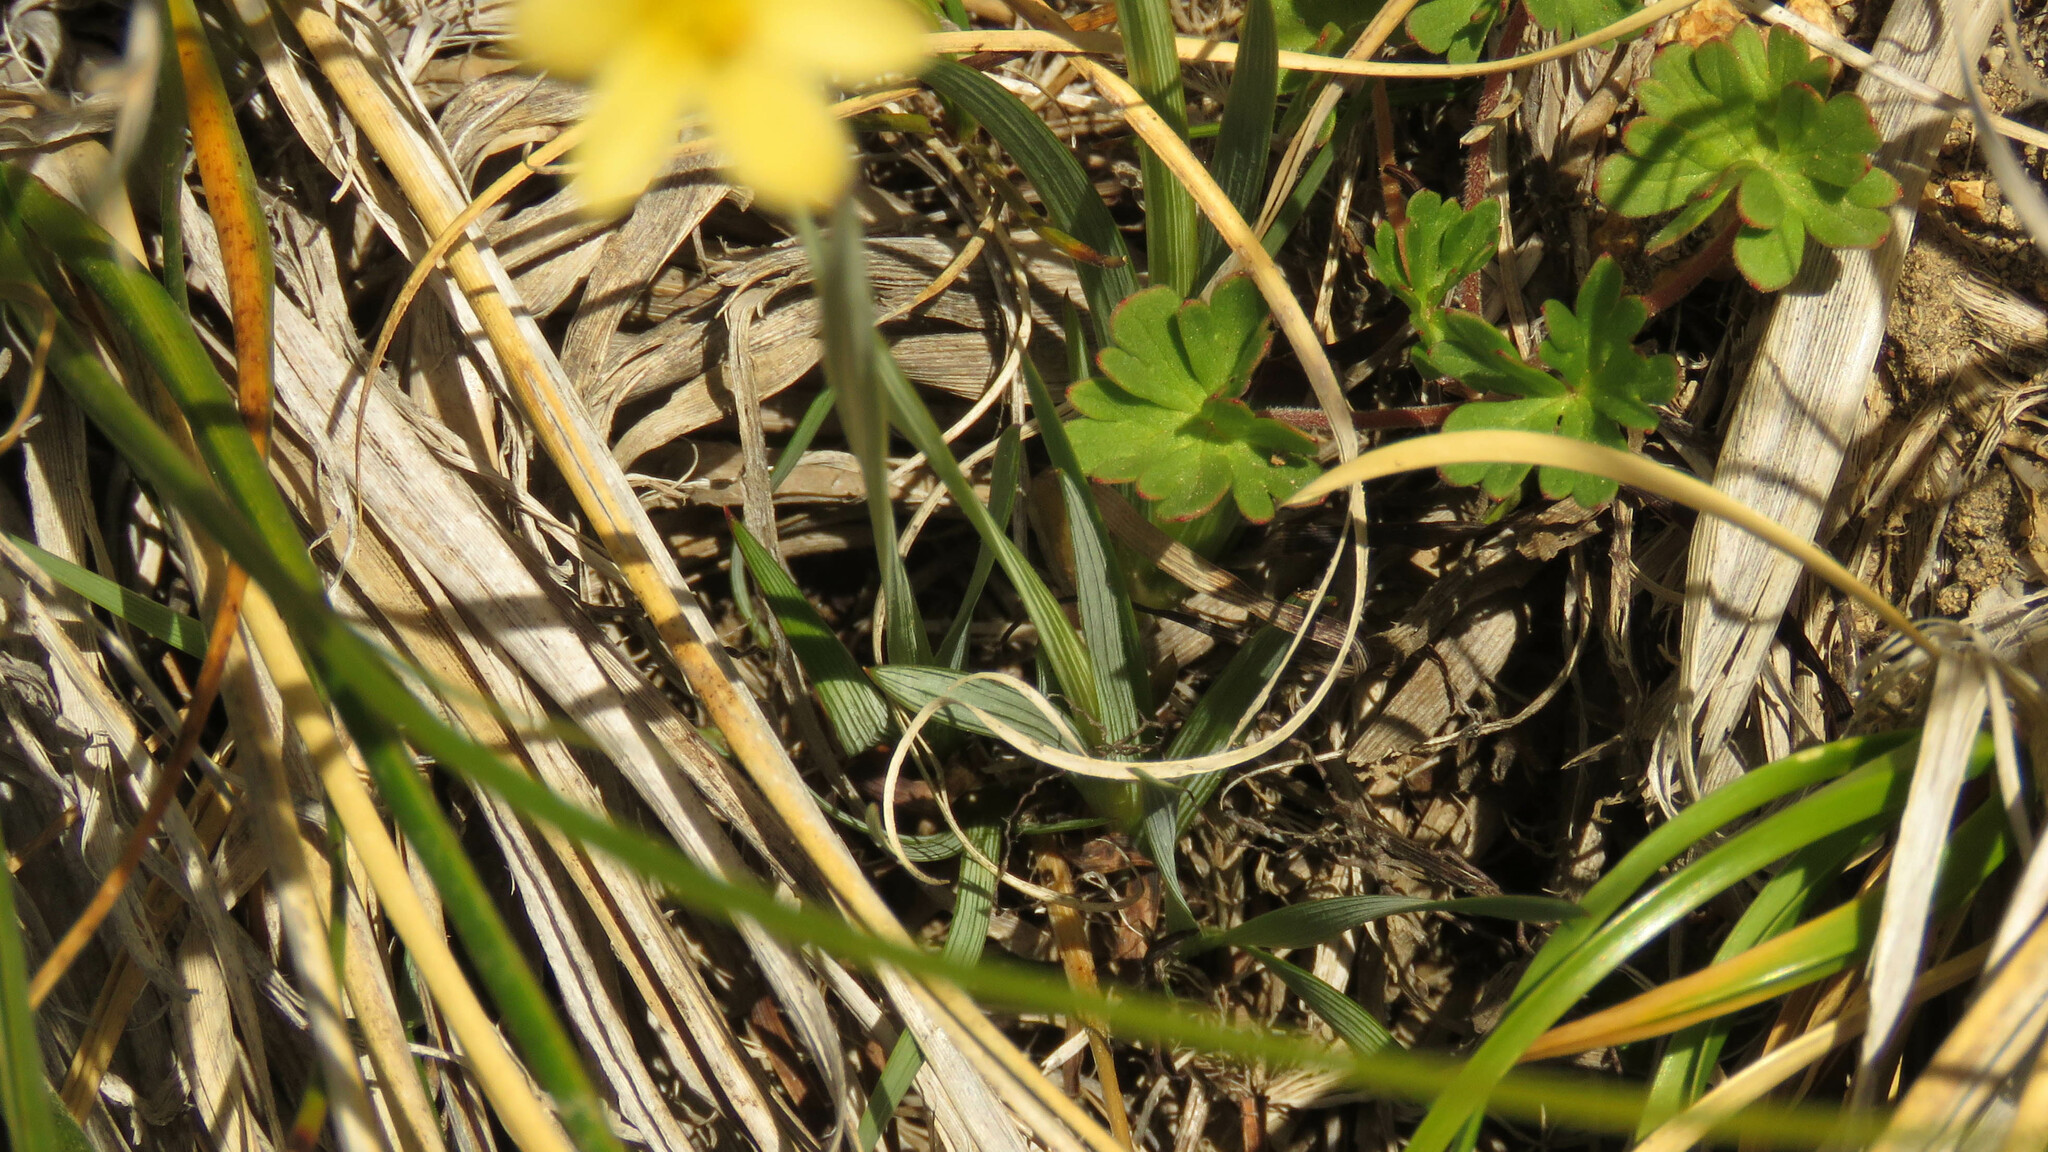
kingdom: Plantae
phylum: Tracheophyta
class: Liliopsida
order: Asparagales
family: Iridaceae
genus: Sisyrinchium
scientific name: Sisyrinchium patagonicum
